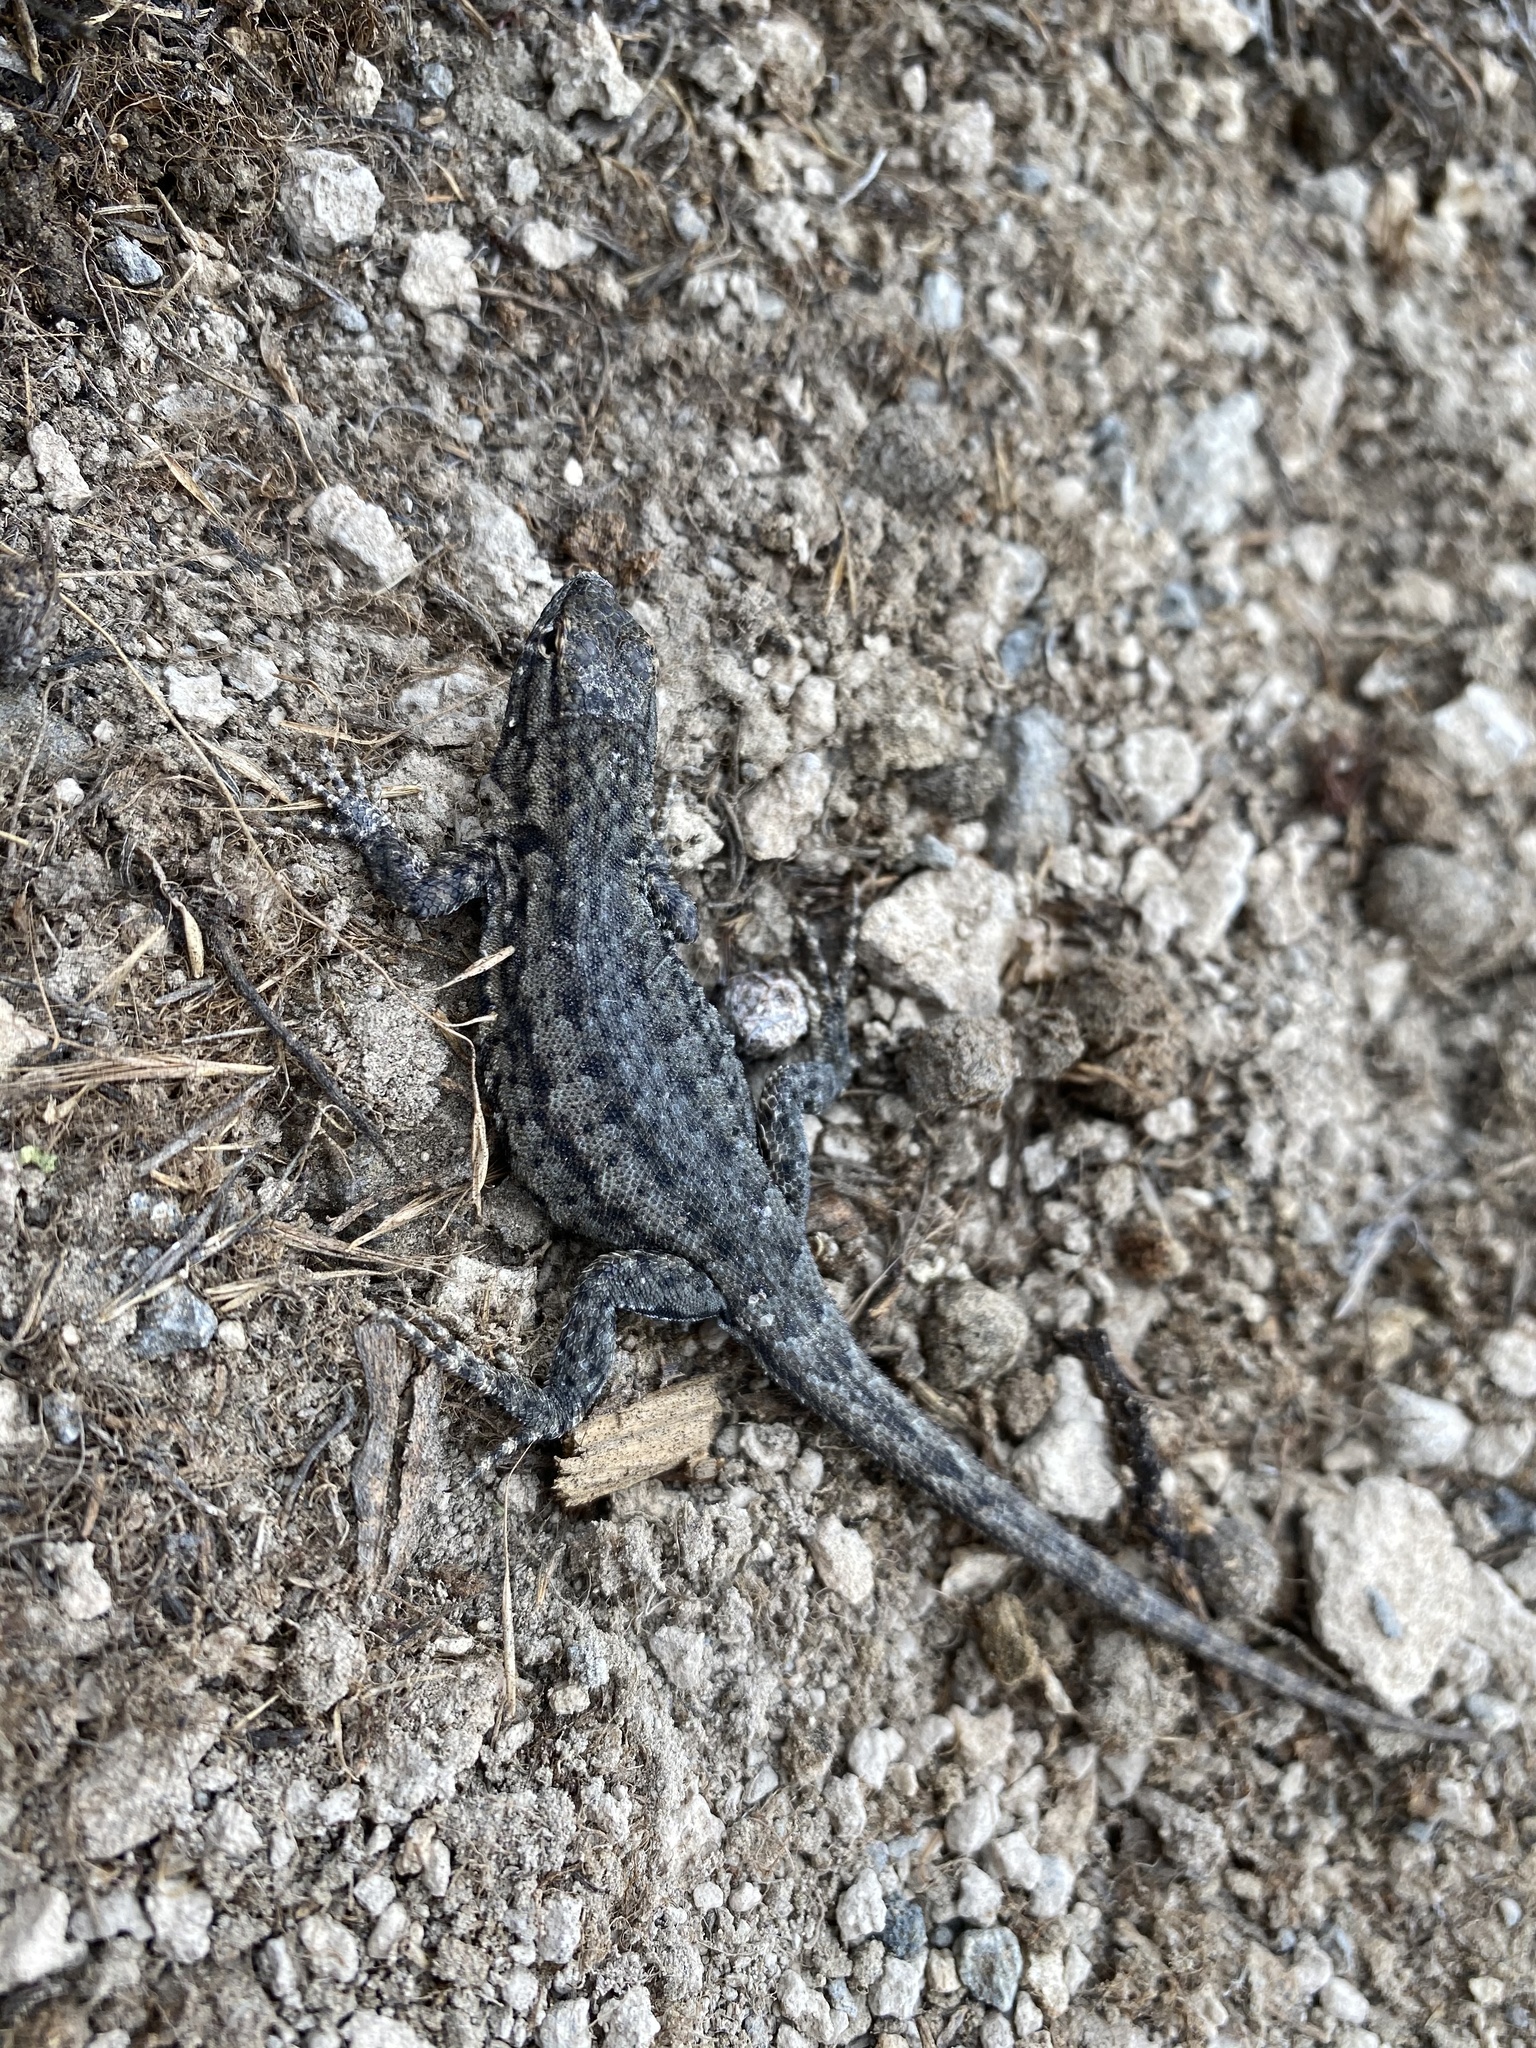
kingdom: Animalia
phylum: Chordata
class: Squamata
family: Phrynosomatidae
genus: Uta
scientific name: Uta stansburiana
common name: Side-blotched lizard
